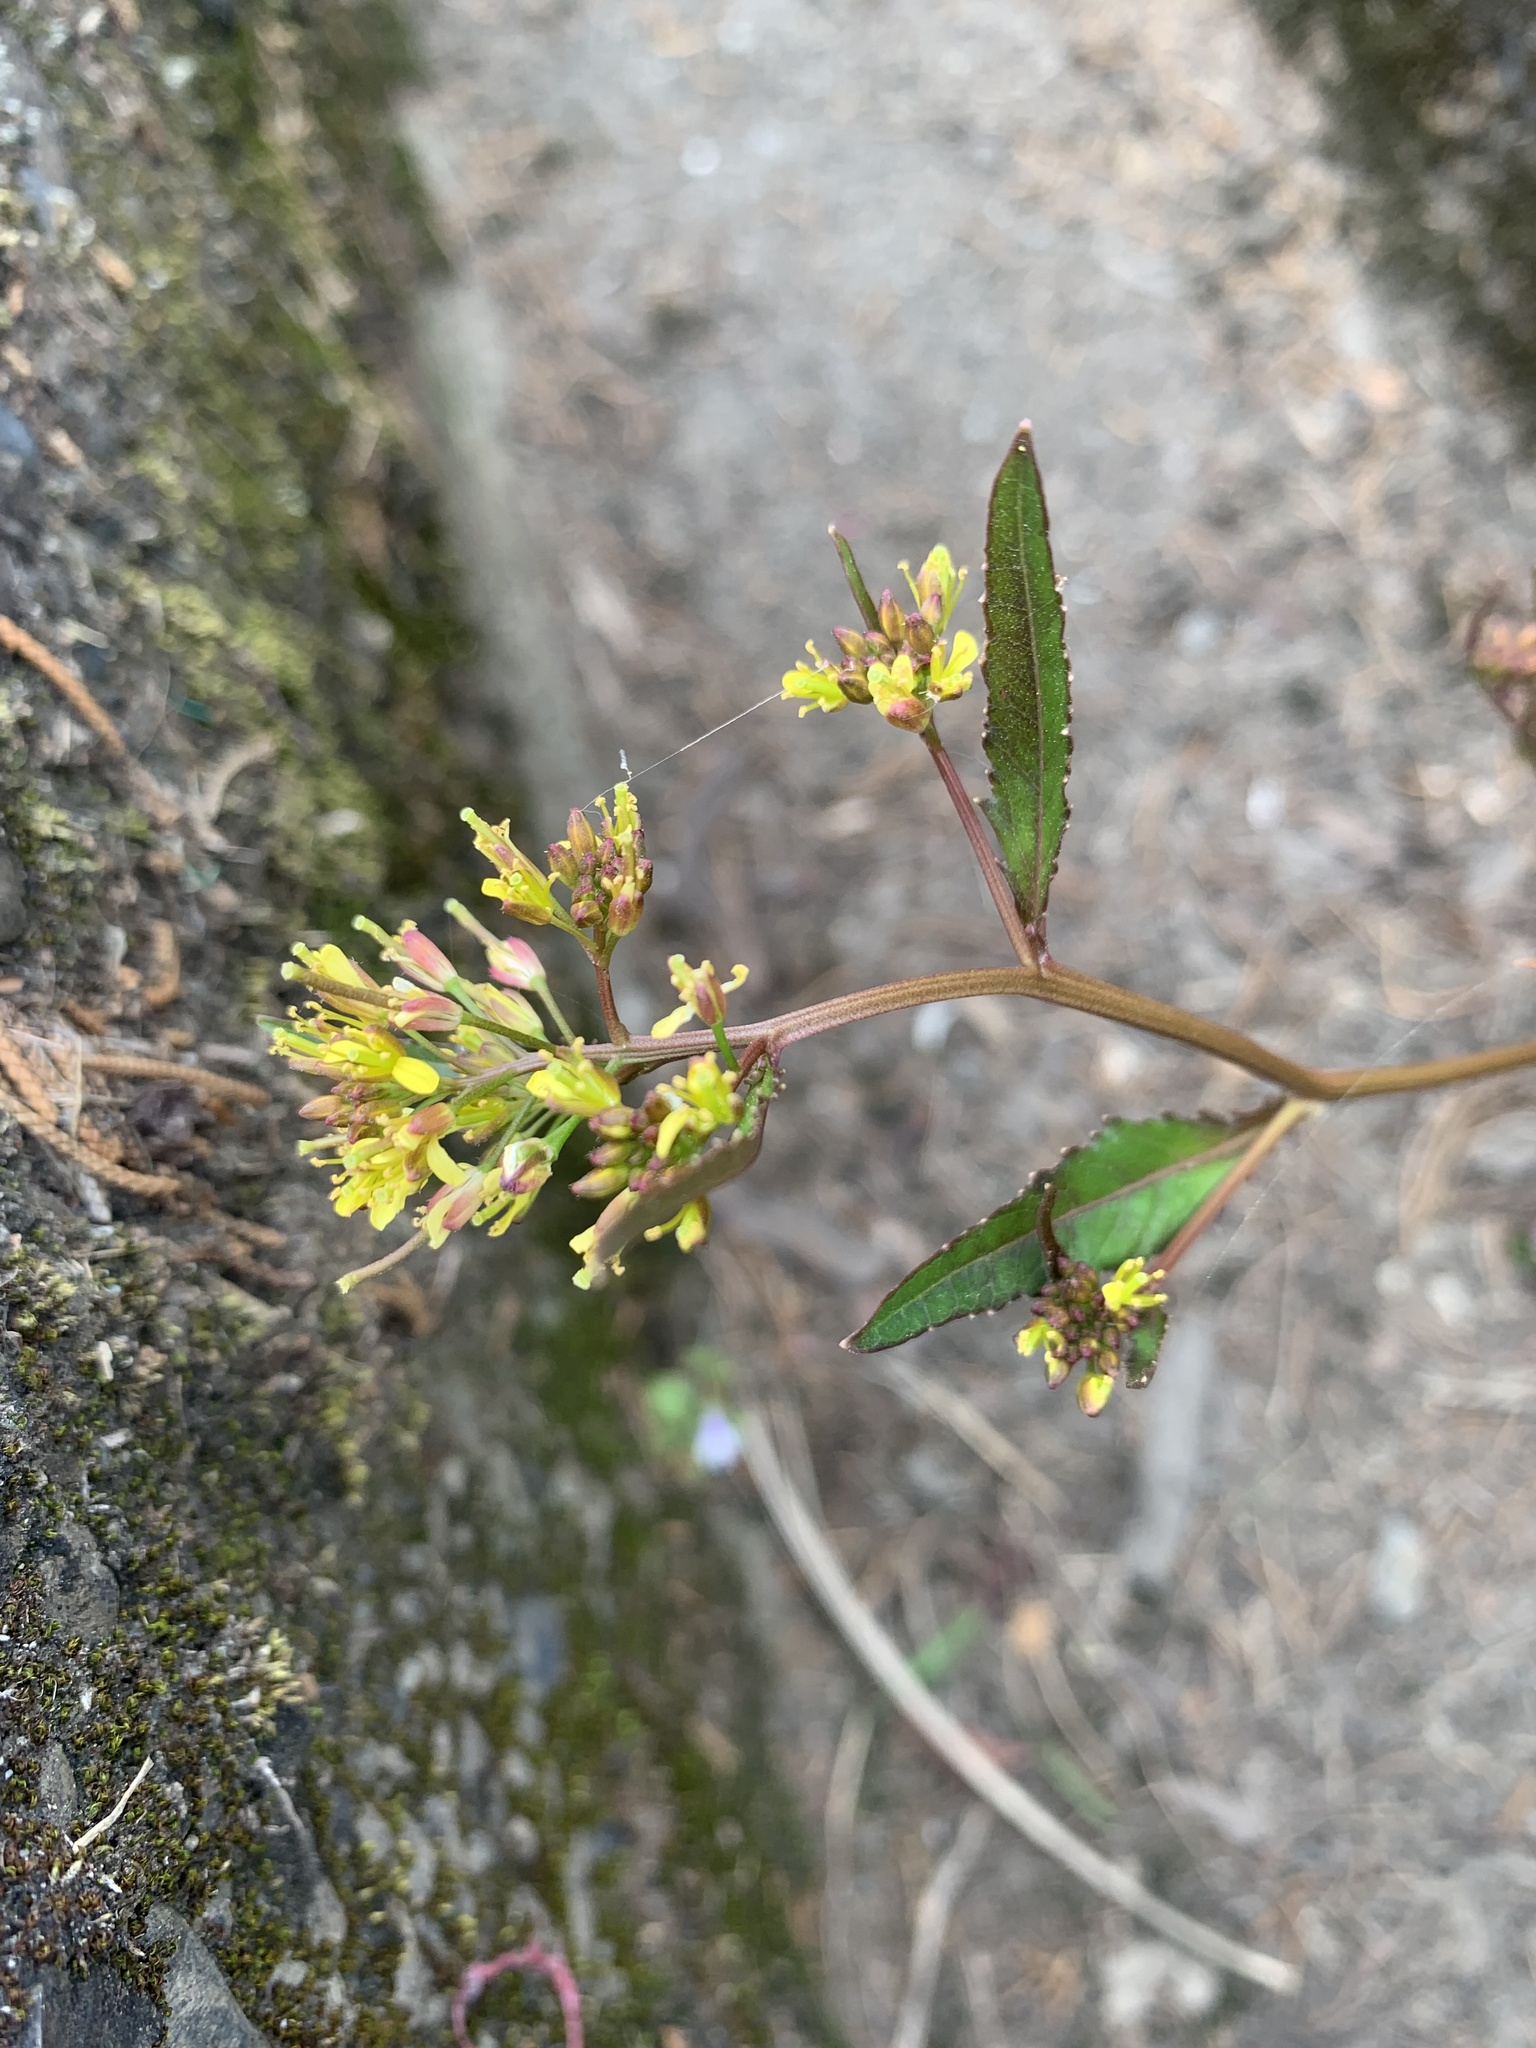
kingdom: Plantae
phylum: Tracheophyta
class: Magnoliopsida
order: Brassicales
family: Brassicaceae
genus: Rorippa
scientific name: Rorippa indica
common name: Variableleaf yellowcress
